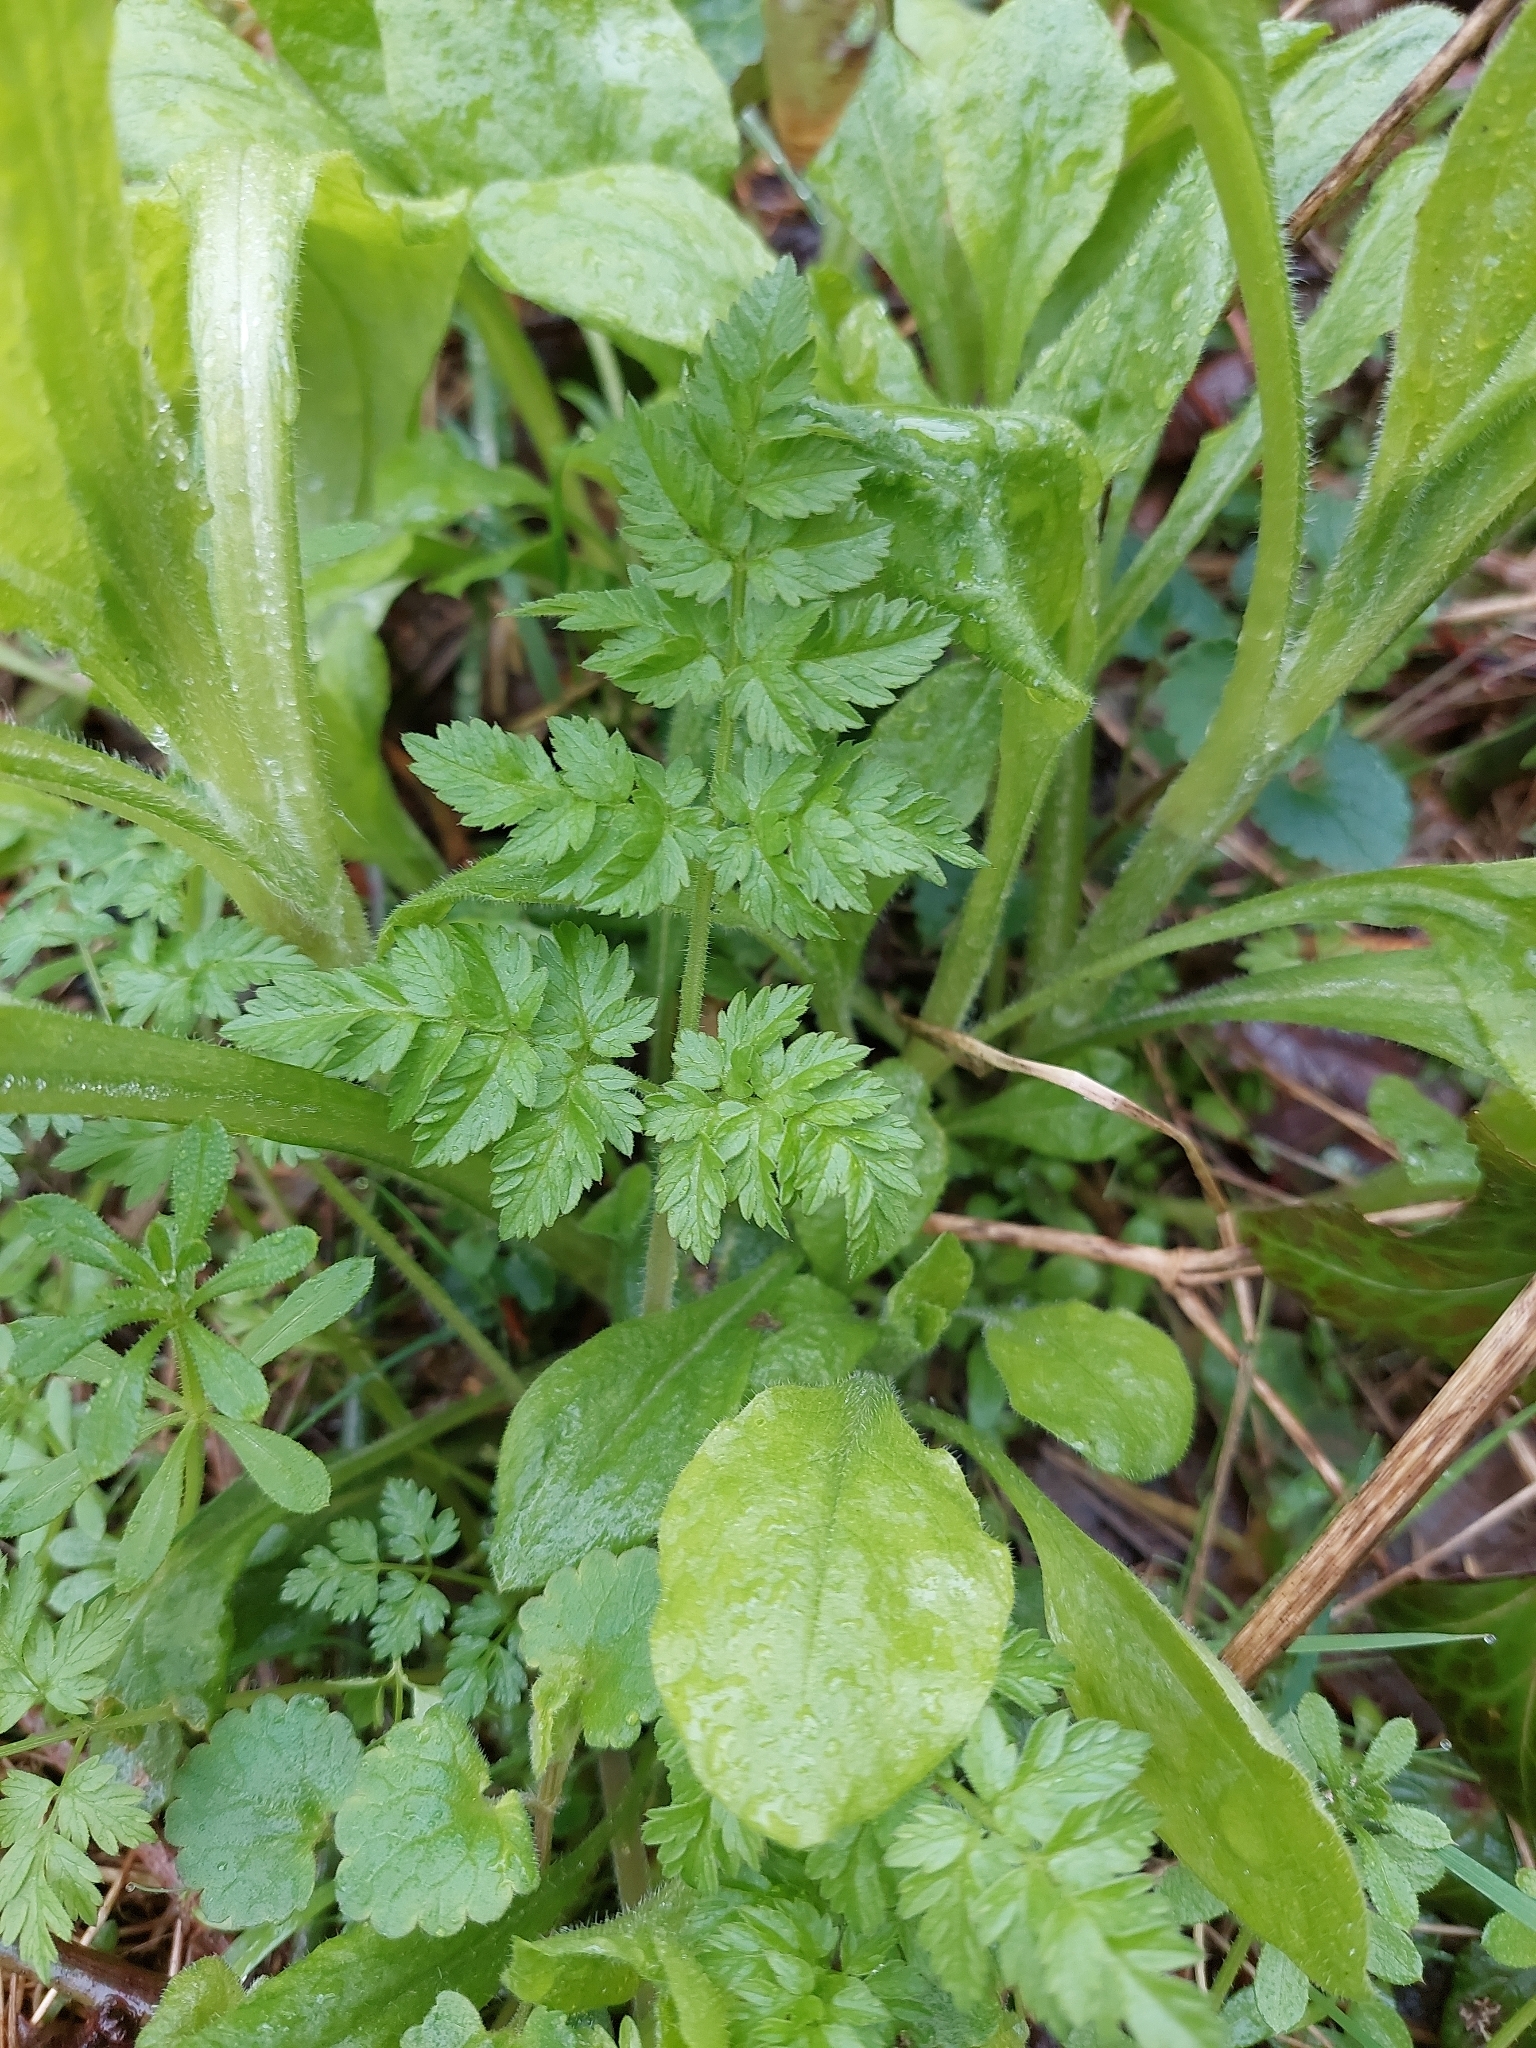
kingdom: Plantae
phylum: Tracheophyta
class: Magnoliopsida
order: Apiales
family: Apiaceae
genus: Anthriscus
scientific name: Anthriscus sylvestris
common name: Cow parsley
